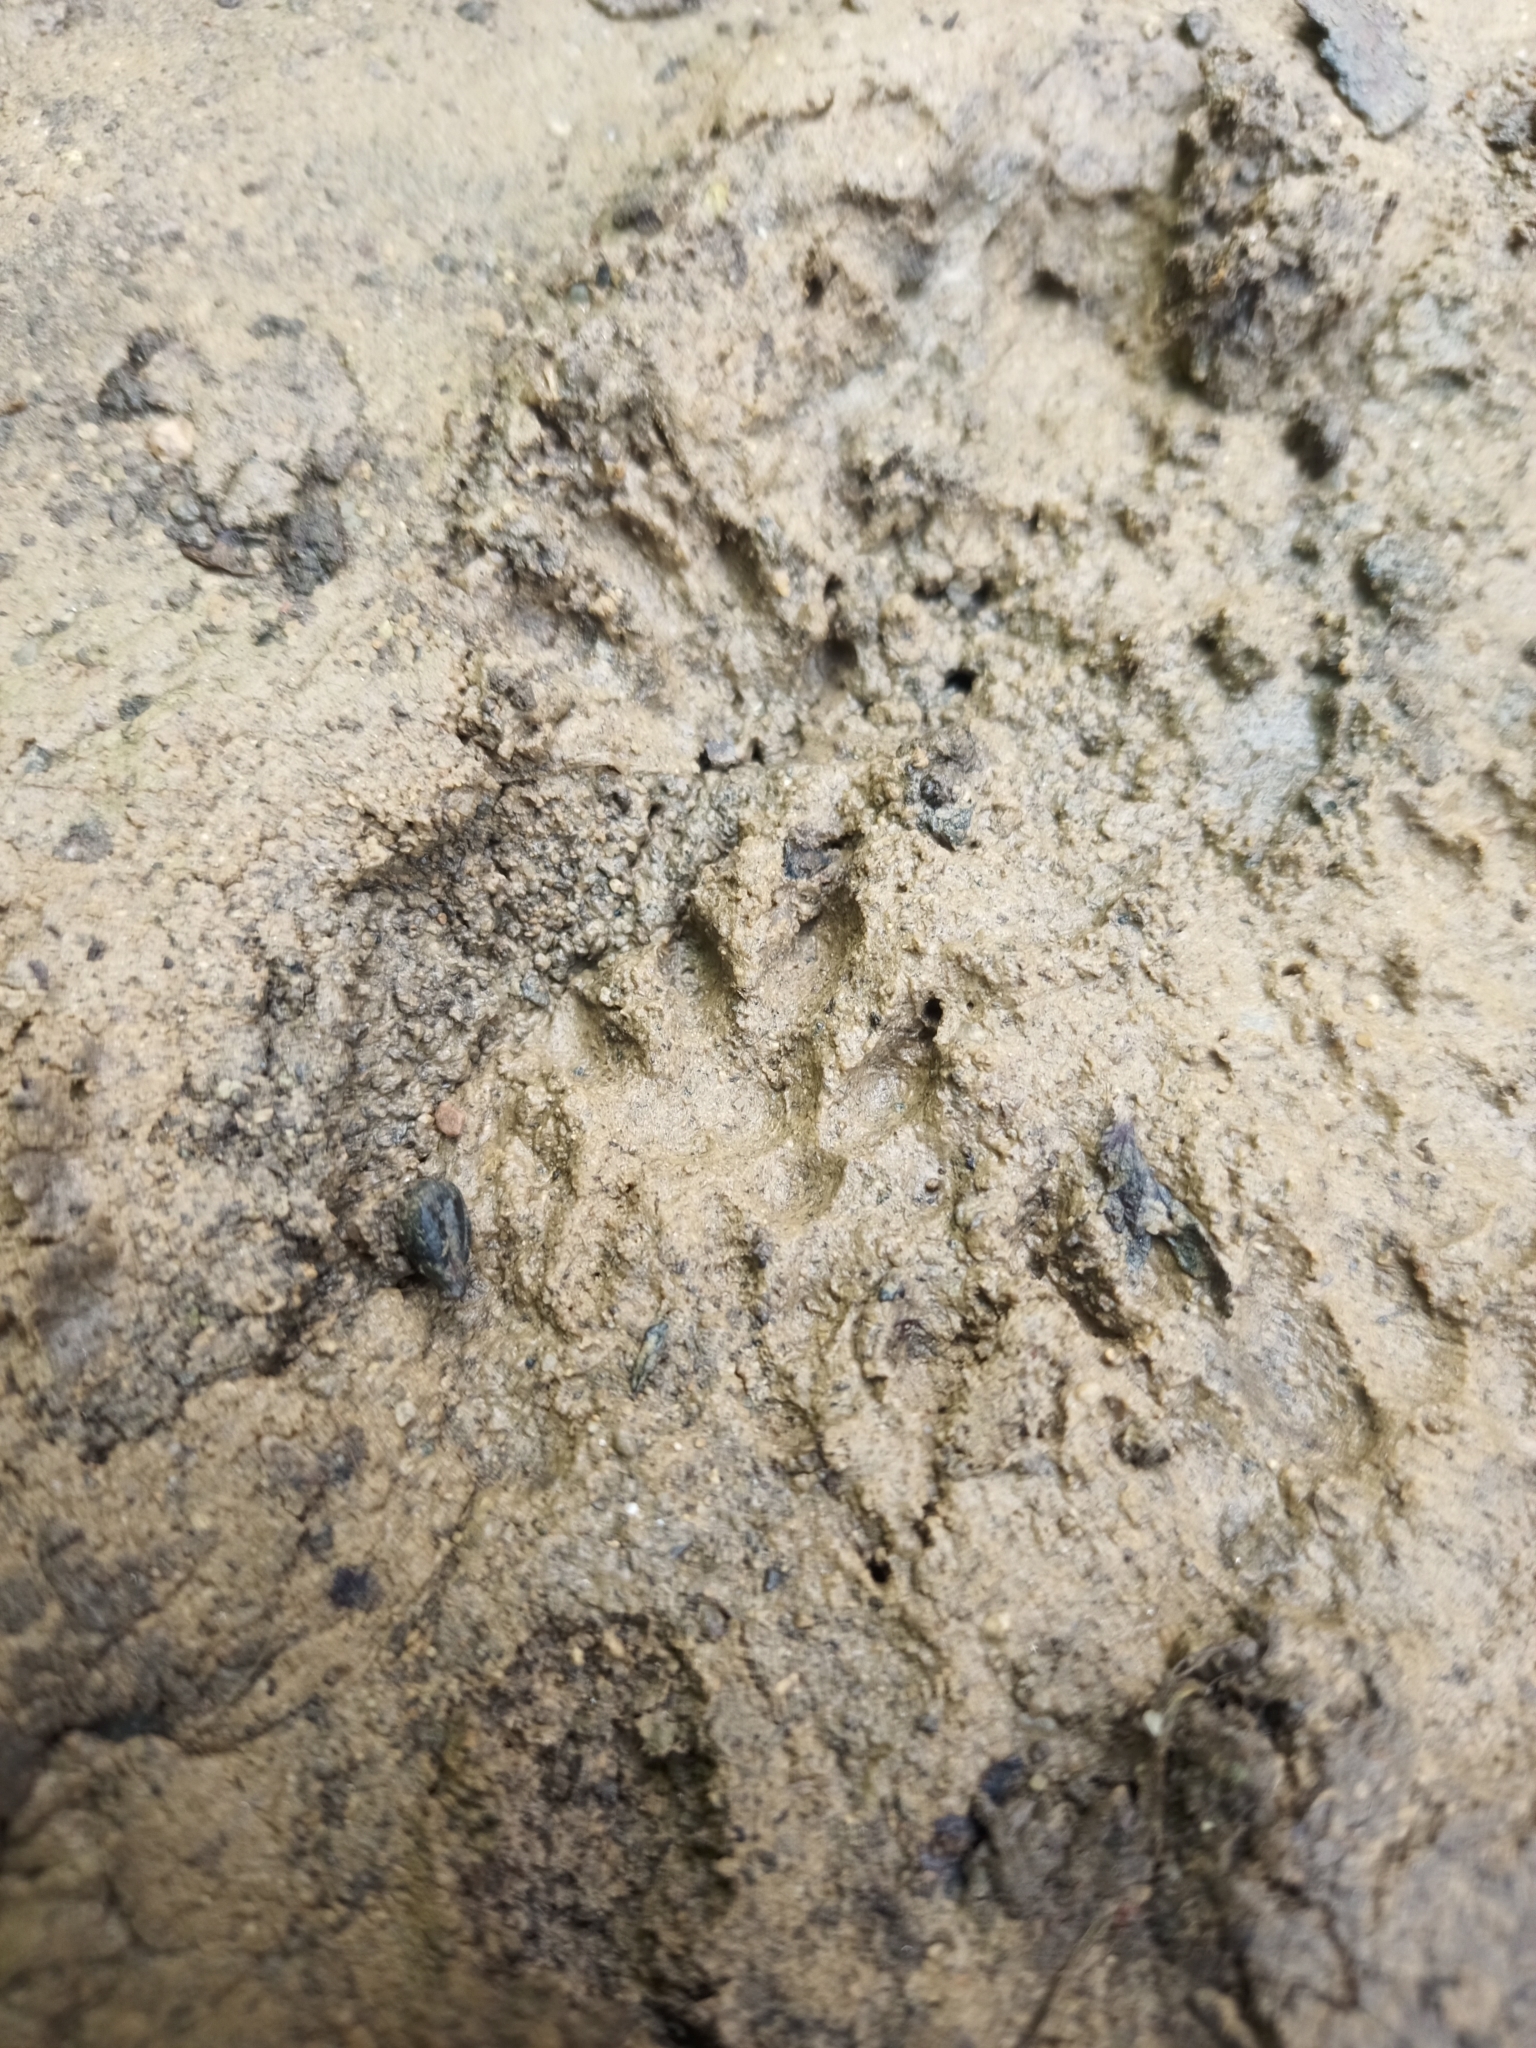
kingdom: Animalia
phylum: Chordata
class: Mammalia
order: Erinaceomorpha
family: Erinaceidae
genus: Erinaceus
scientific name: Erinaceus roumanicus
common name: Northern white-breasted hedgehog
